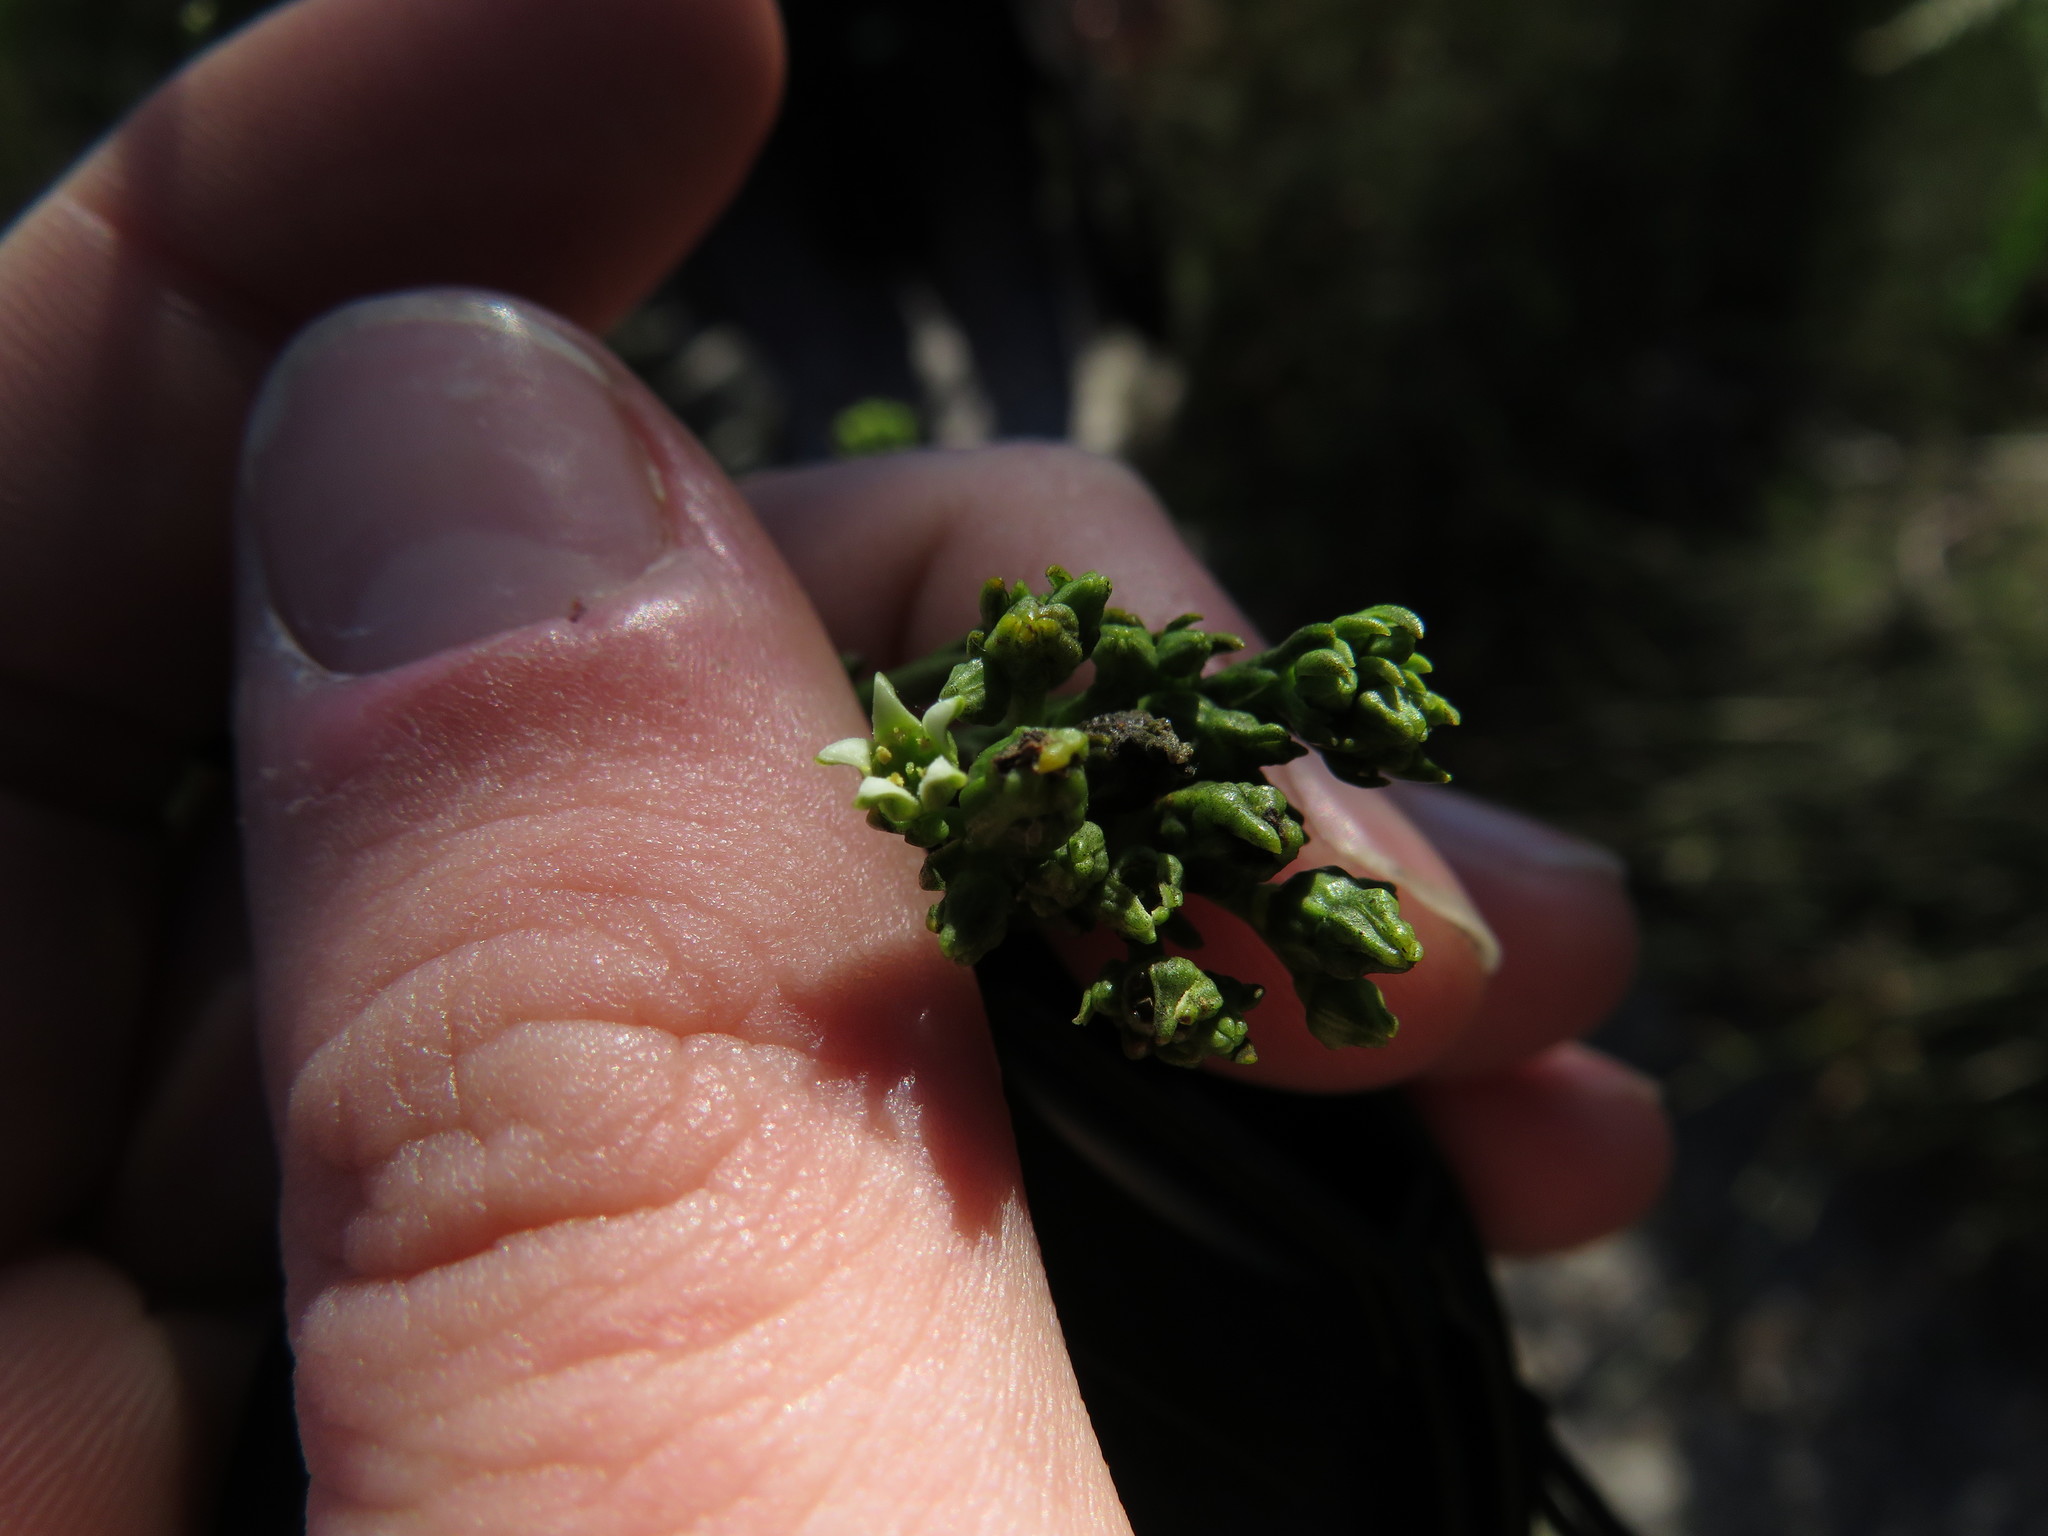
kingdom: Plantae
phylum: Tracheophyta
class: Magnoliopsida
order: Santalales
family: Thesiaceae
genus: Thesium
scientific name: Thesium strictum
